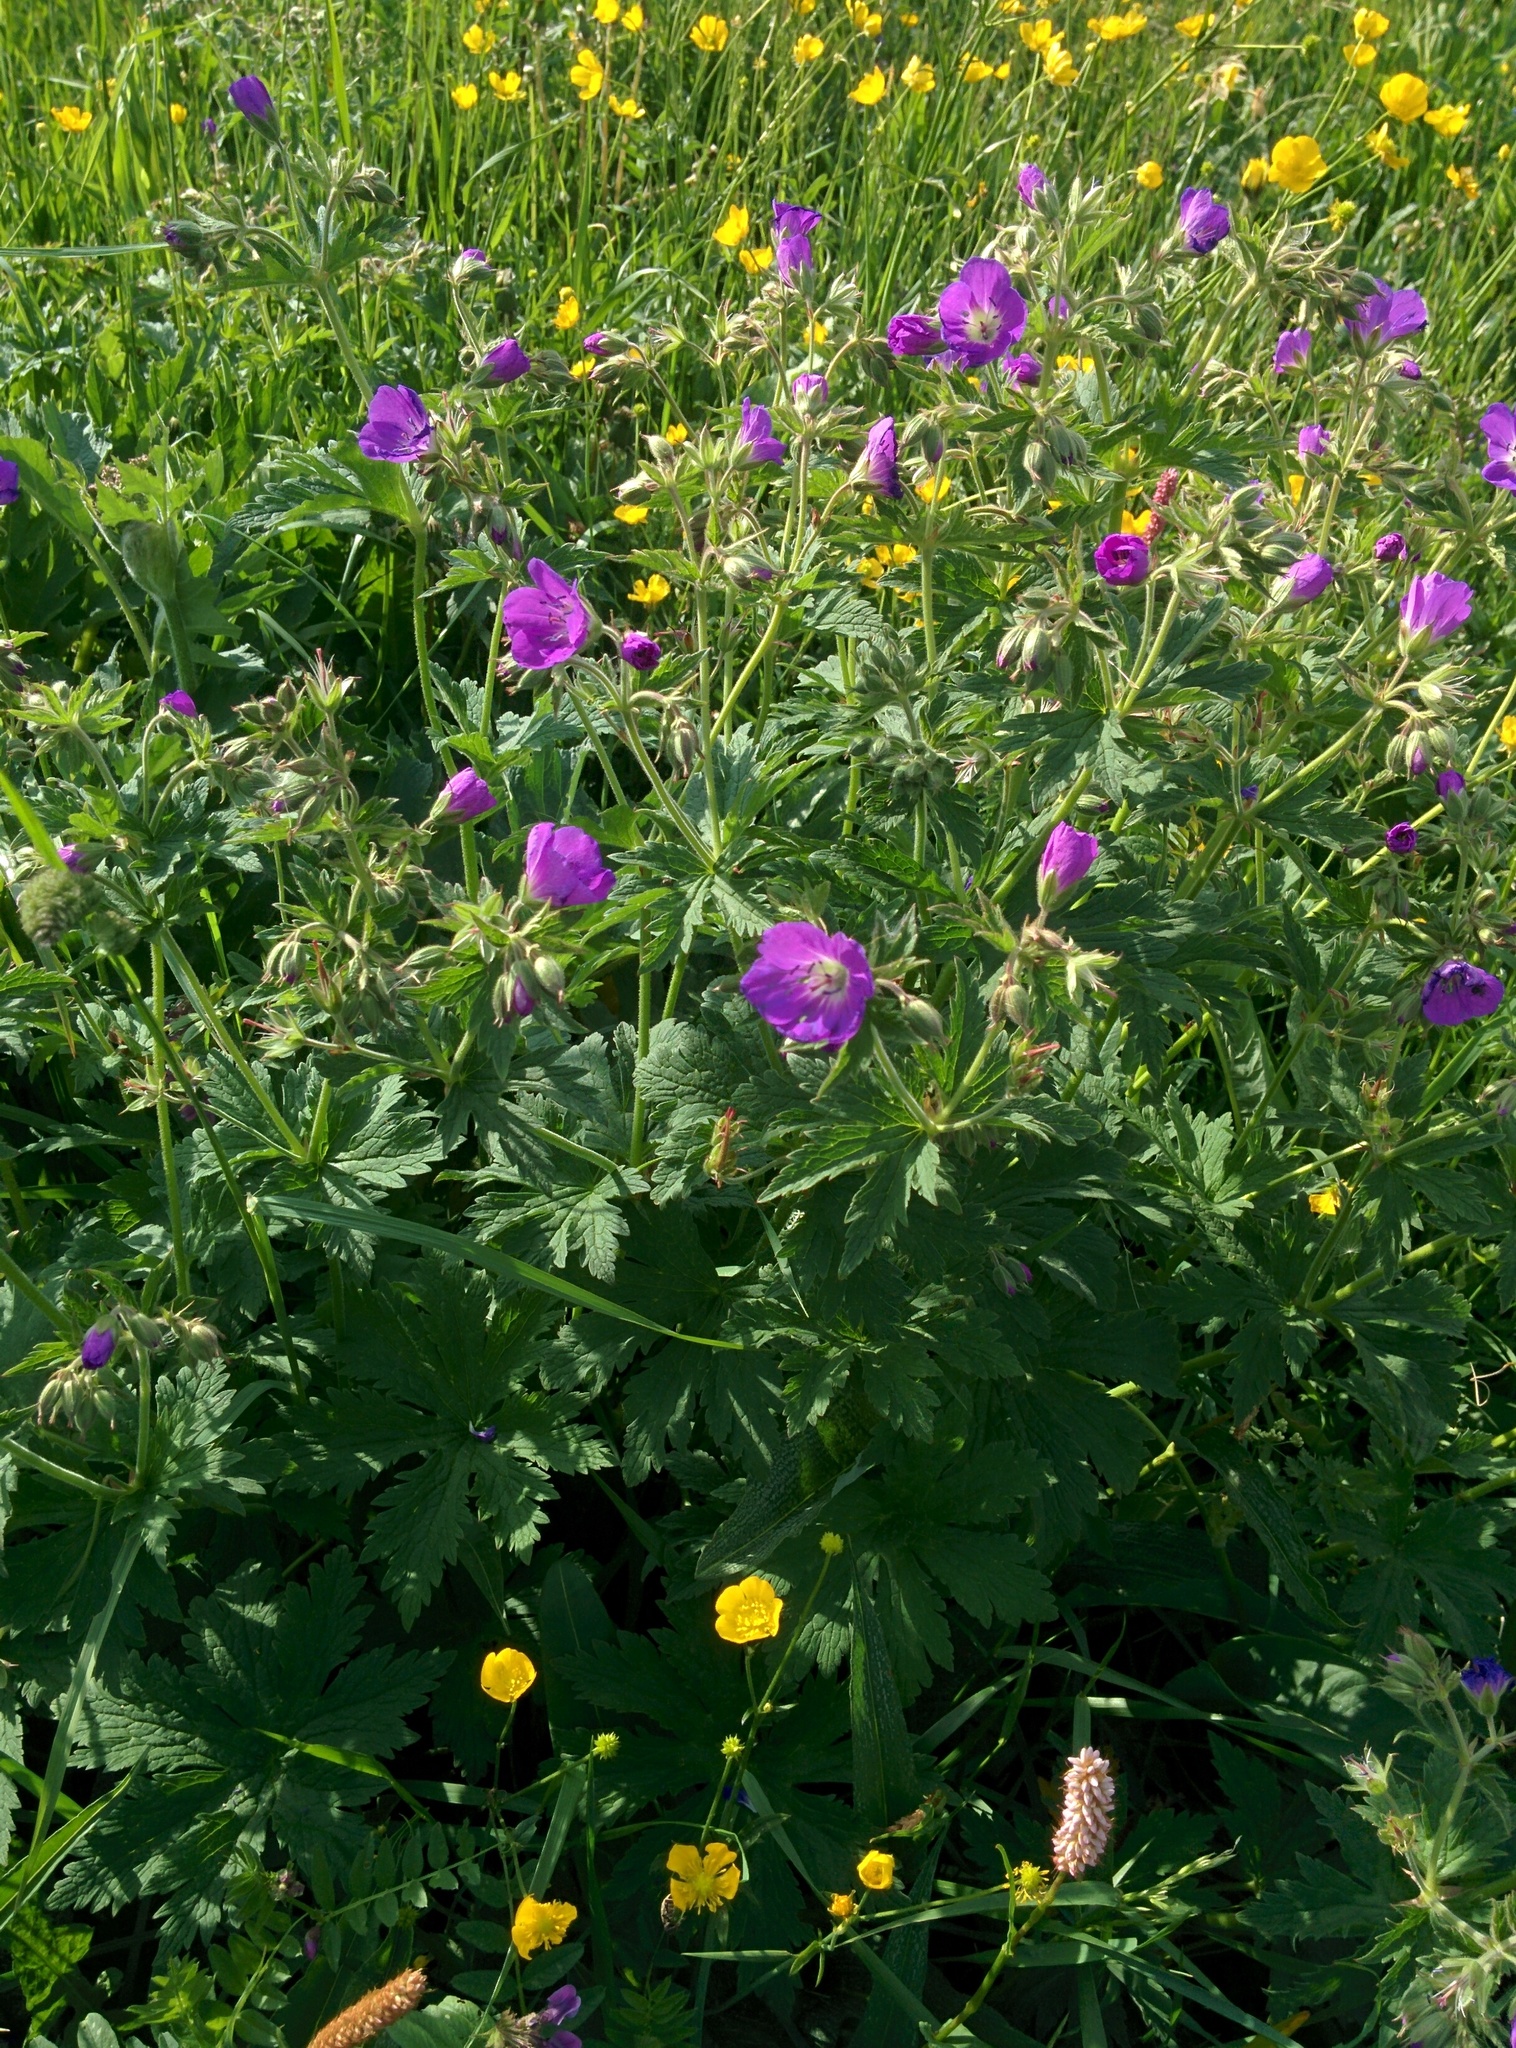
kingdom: Plantae
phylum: Tracheophyta
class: Magnoliopsida
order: Geraniales
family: Geraniaceae
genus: Geranium
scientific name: Geranium sylvaticum
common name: Wood crane's-bill
